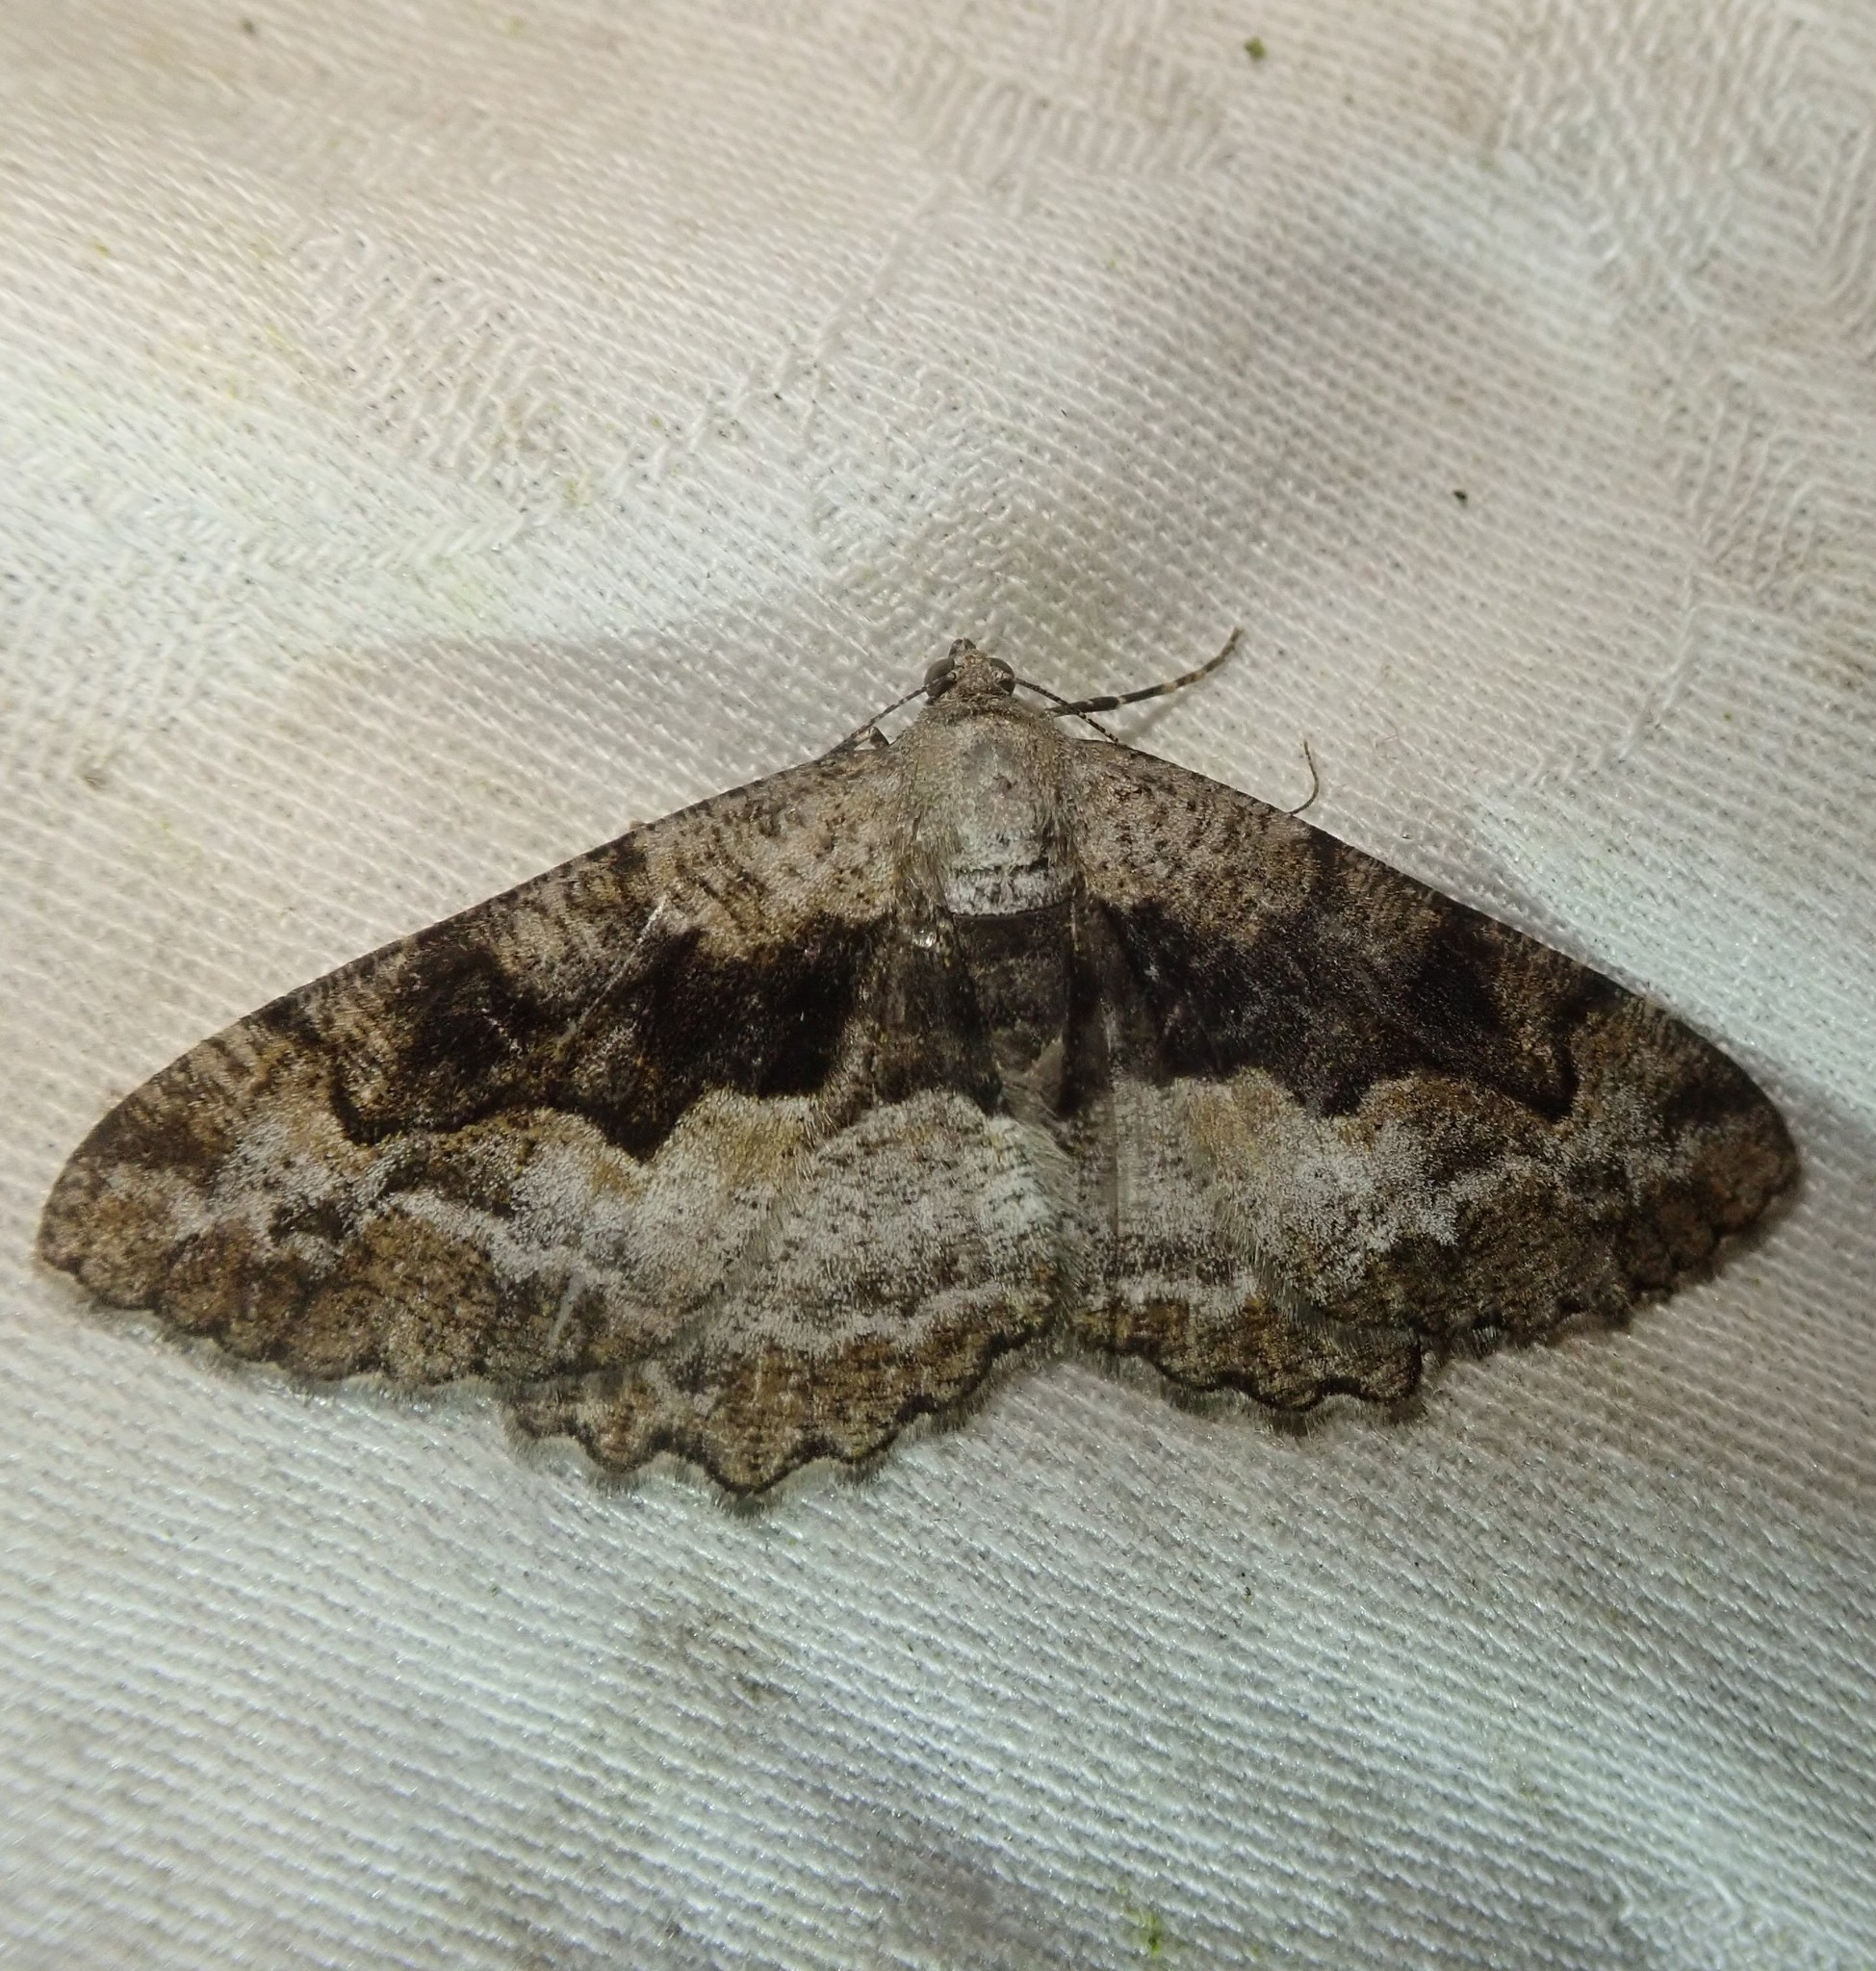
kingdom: Animalia
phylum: Arthropoda
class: Insecta
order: Lepidoptera
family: Geometridae
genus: Alcis
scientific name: Alcis repandata
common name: Mottled beauty
